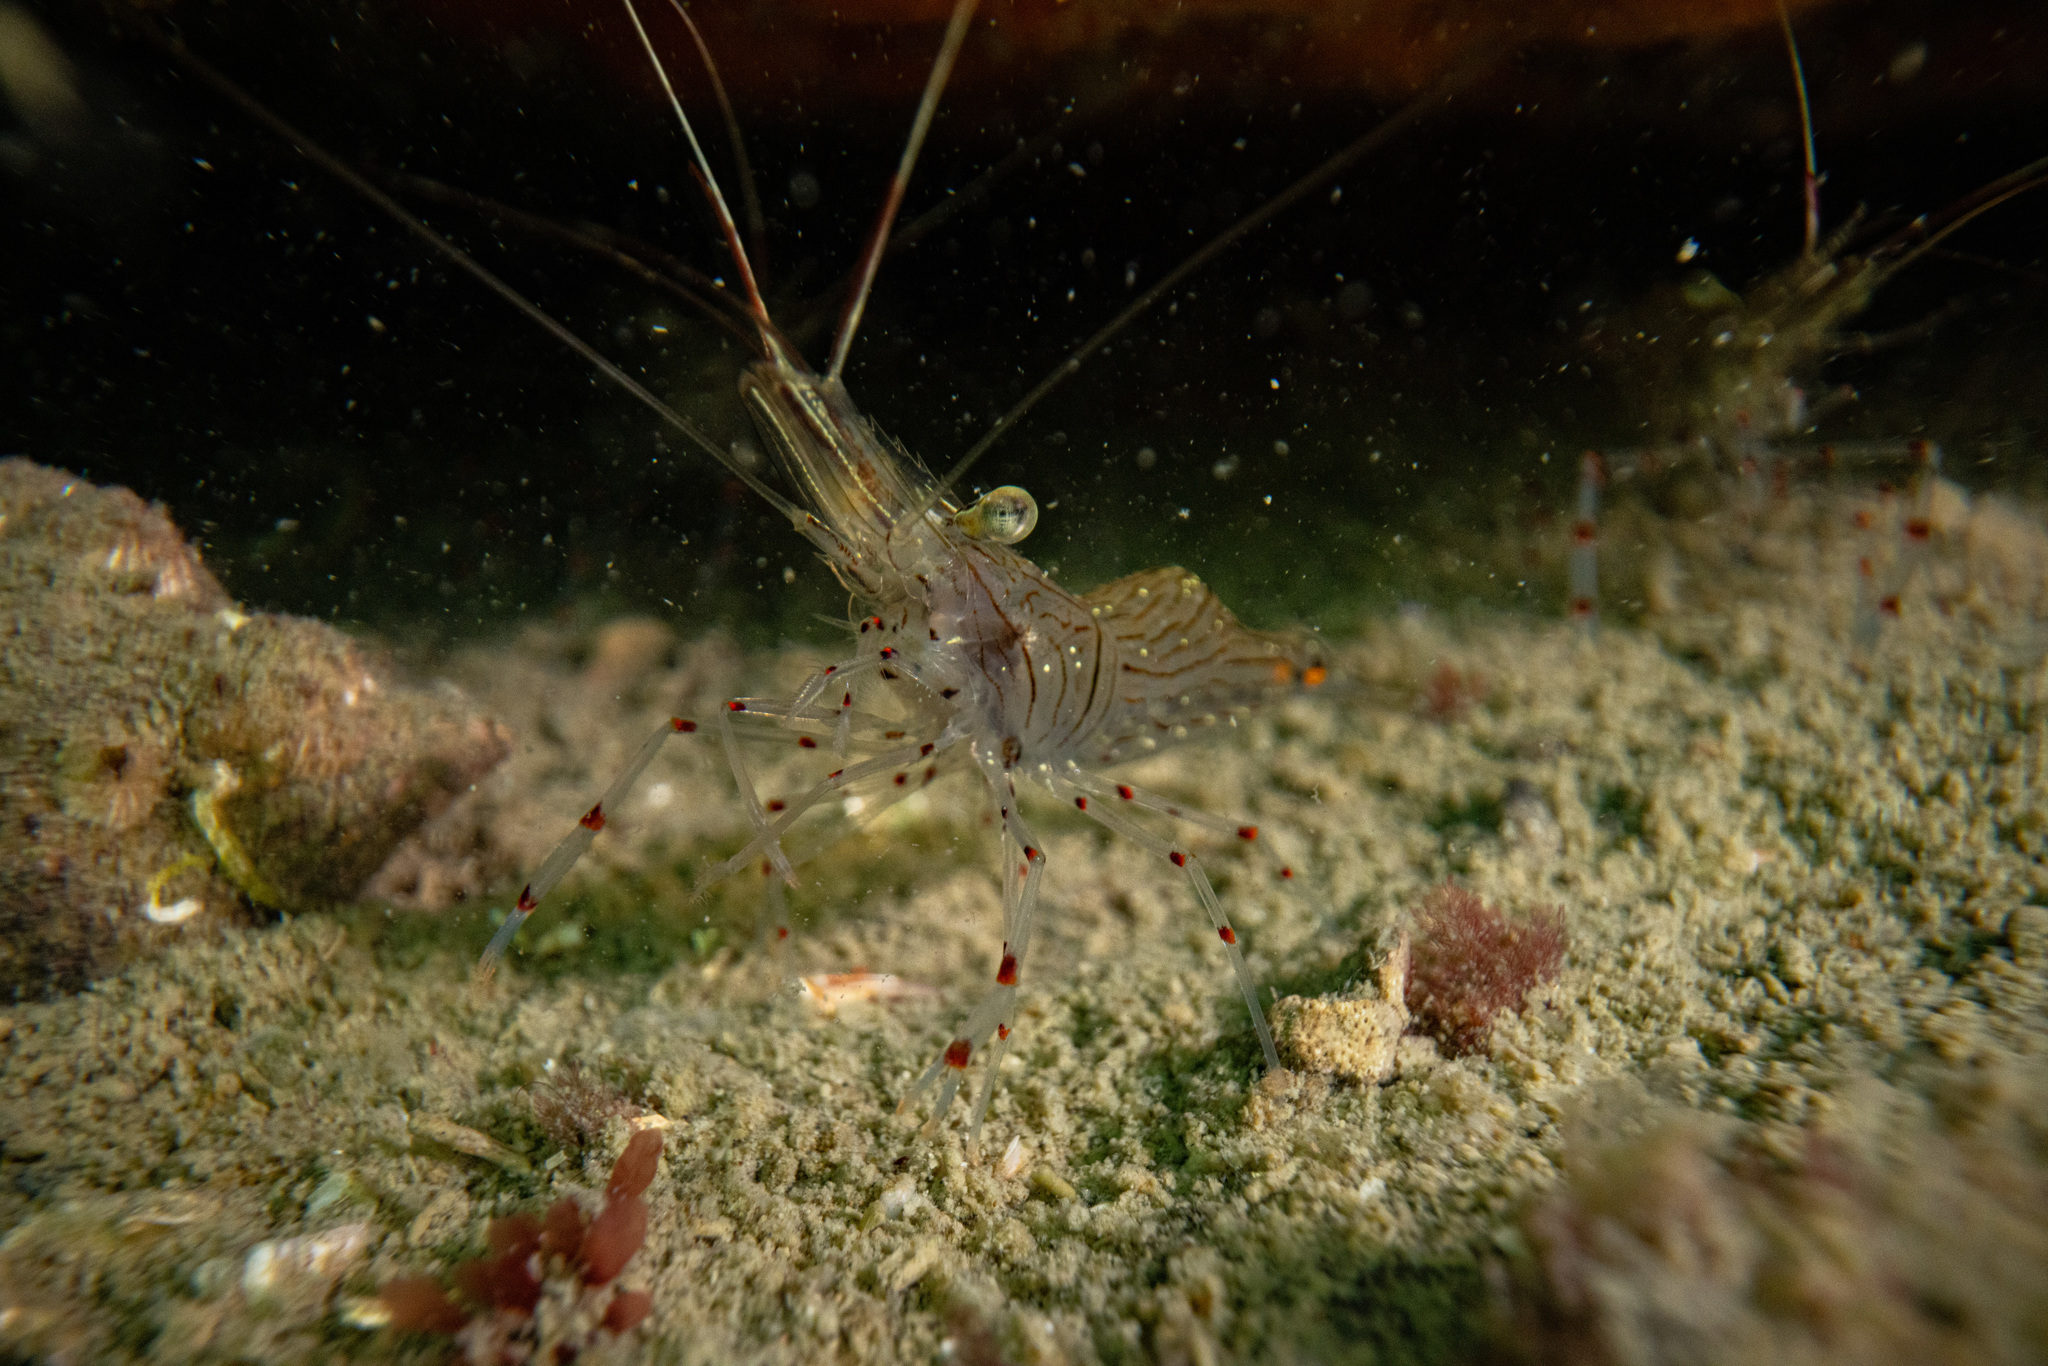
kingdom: Animalia
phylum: Arthropoda
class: Malacostraca
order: Decapoda
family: Palaemonidae
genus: Palaemon
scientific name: Palaemon affinis
